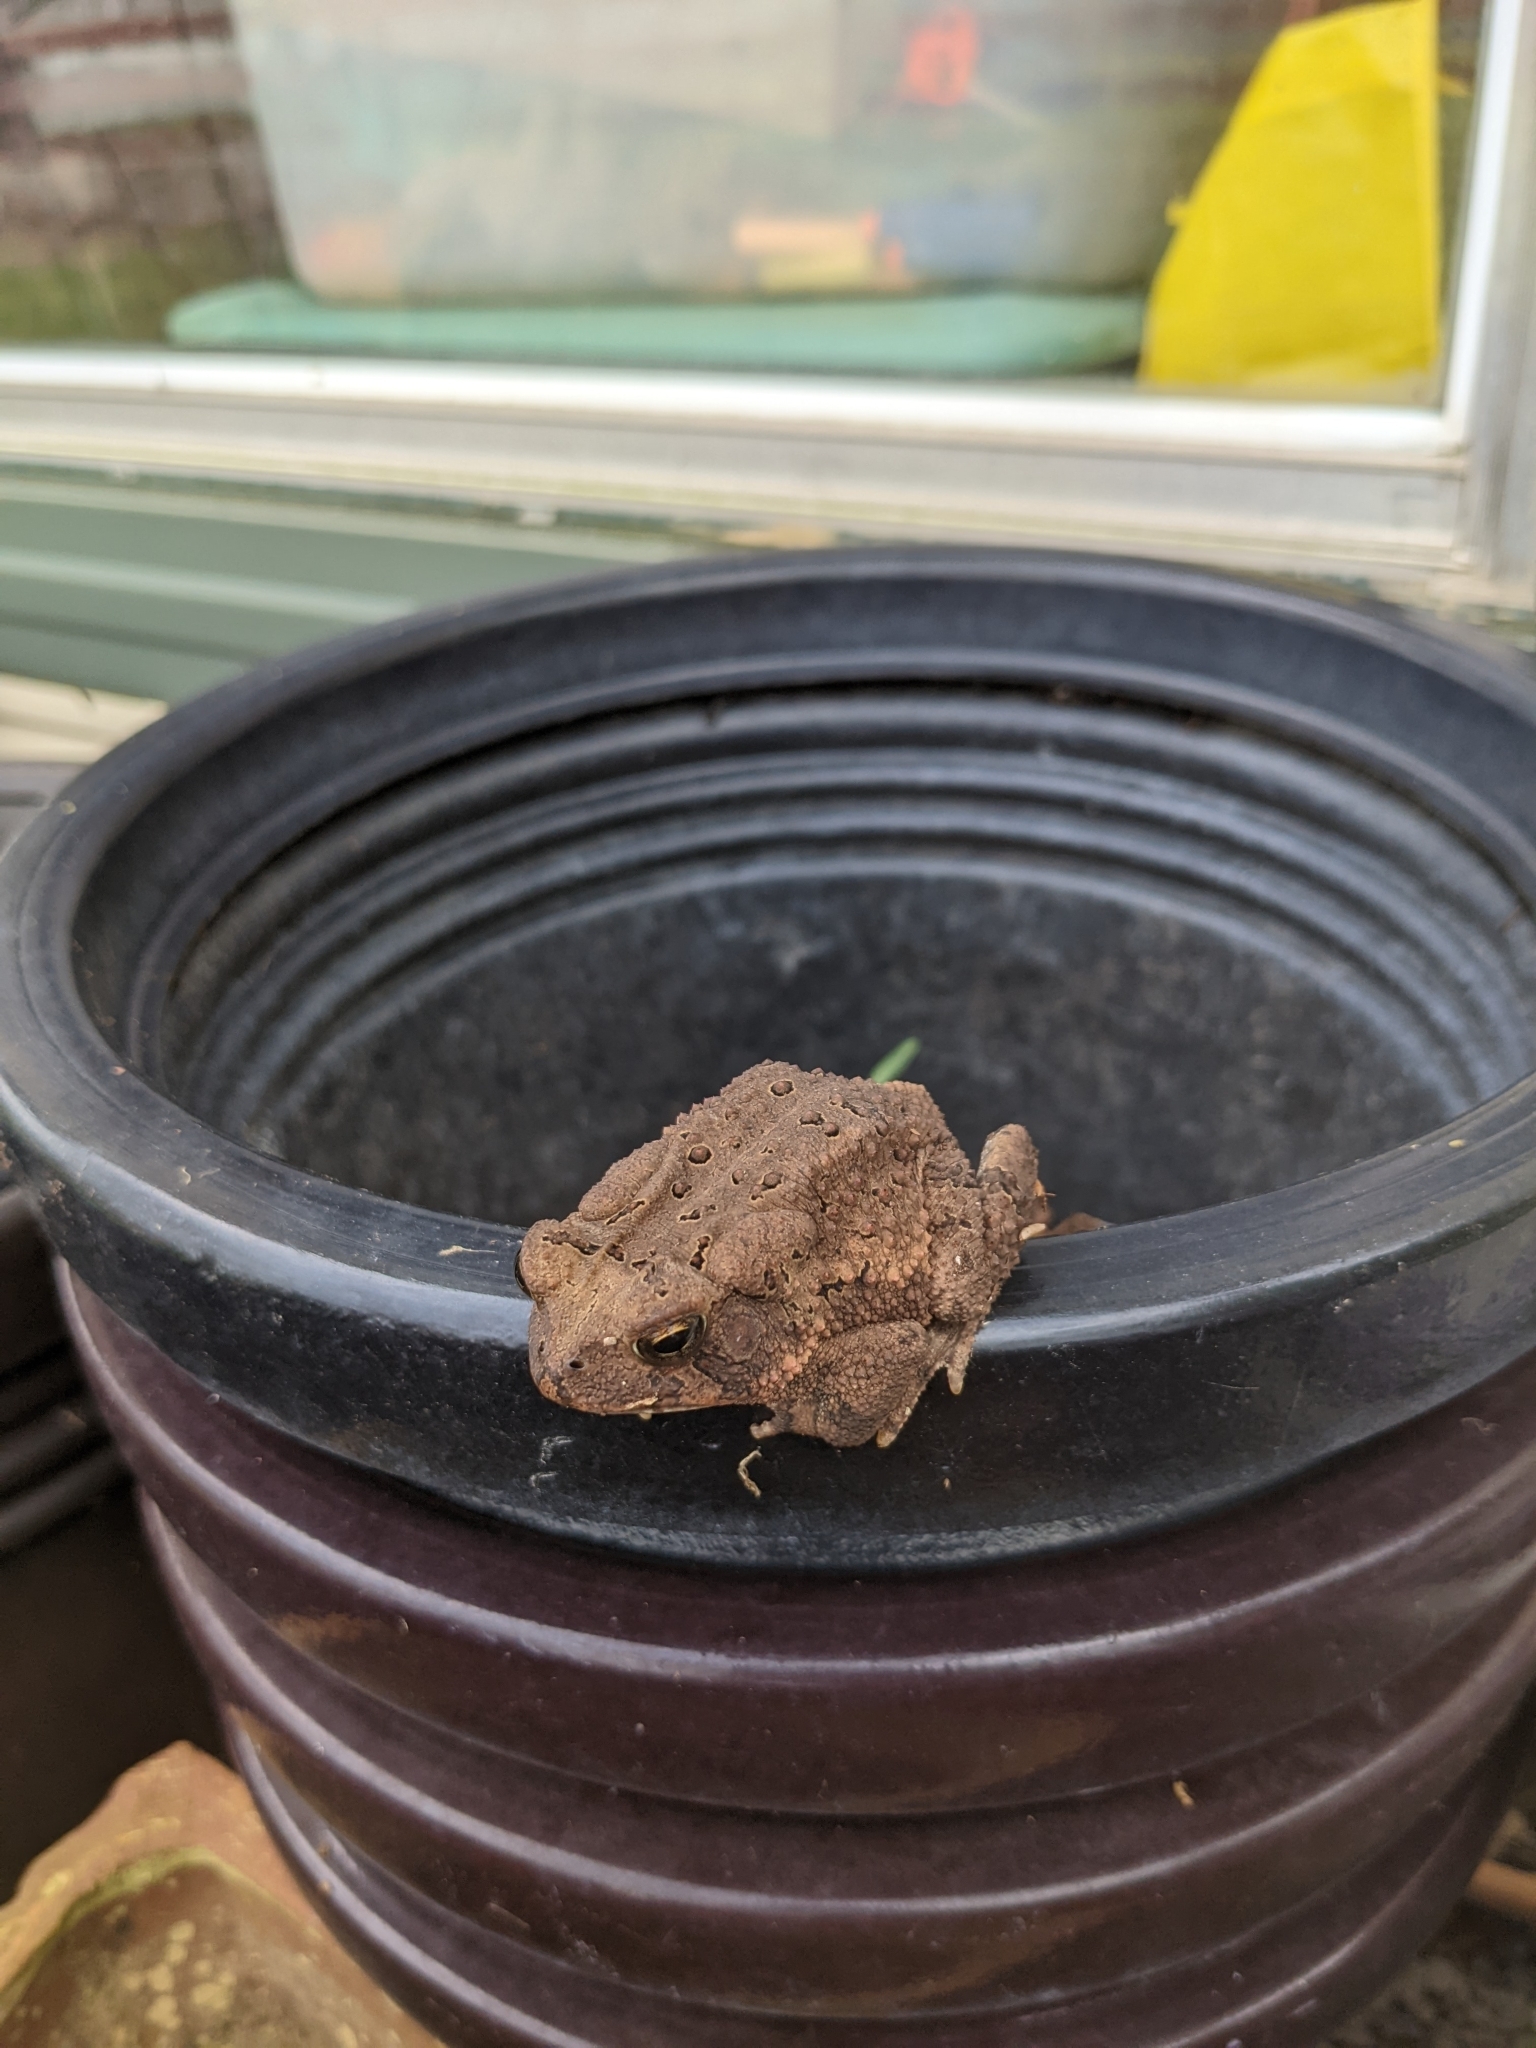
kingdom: Animalia
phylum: Chordata
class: Amphibia
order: Anura
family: Bufonidae
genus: Anaxyrus
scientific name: Anaxyrus americanus
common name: American toad
